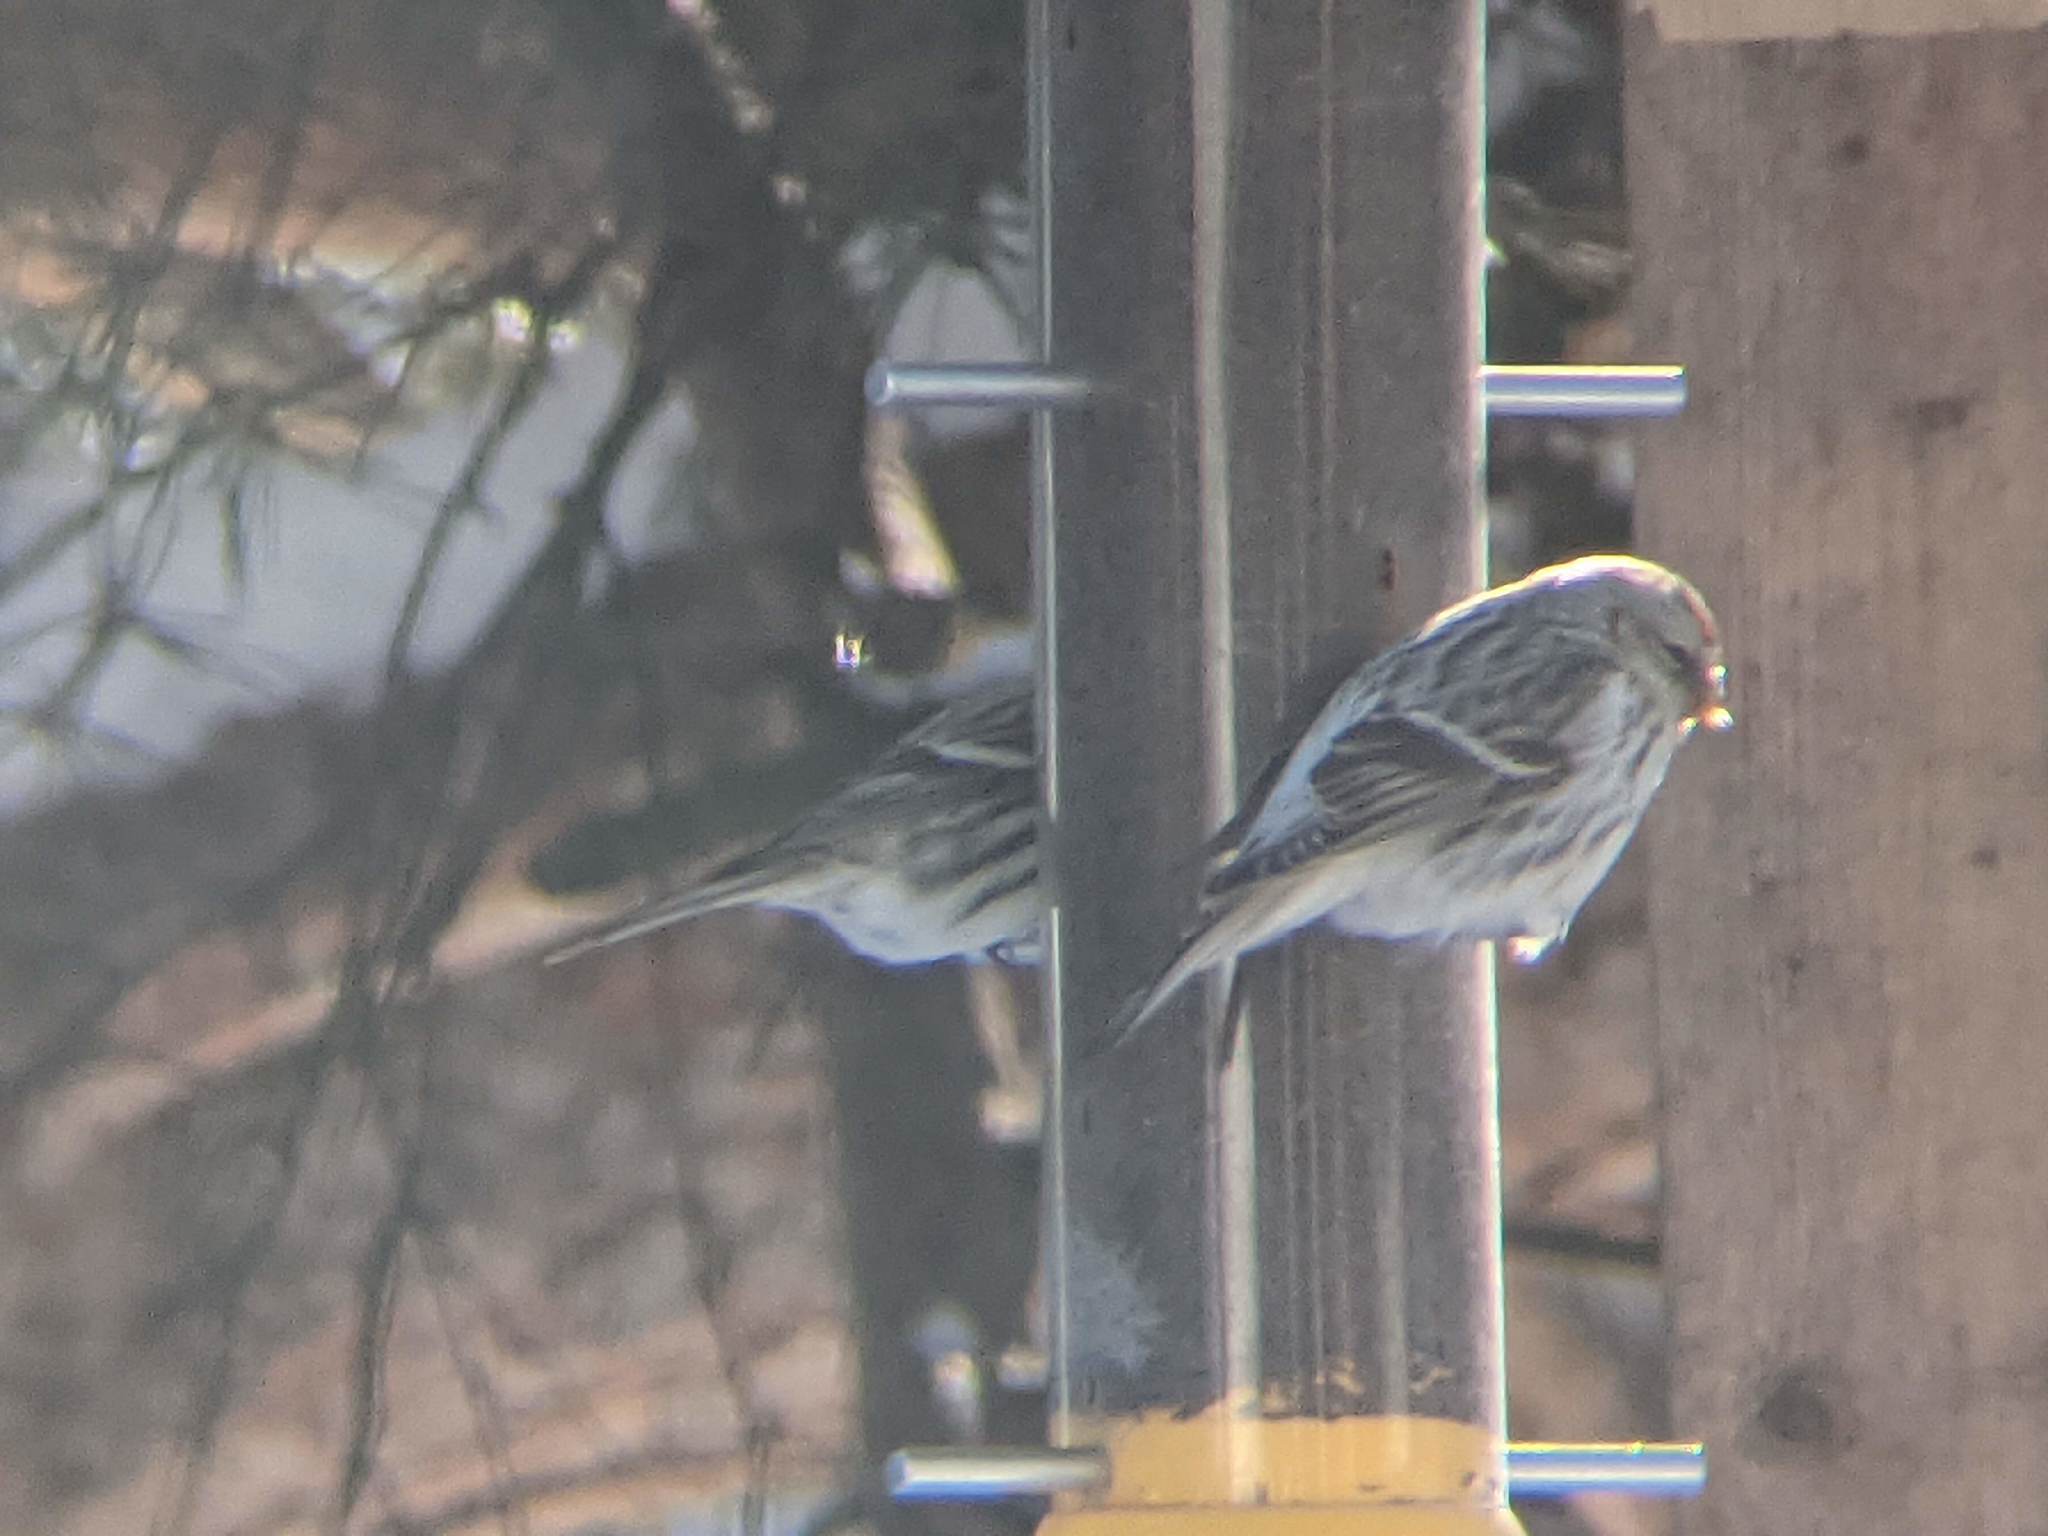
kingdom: Animalia
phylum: Chordata
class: Aves
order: Passeriformes
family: Fringillidae
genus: Acanthis
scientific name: Acanthis hornemanni
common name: Arctic redpoll
